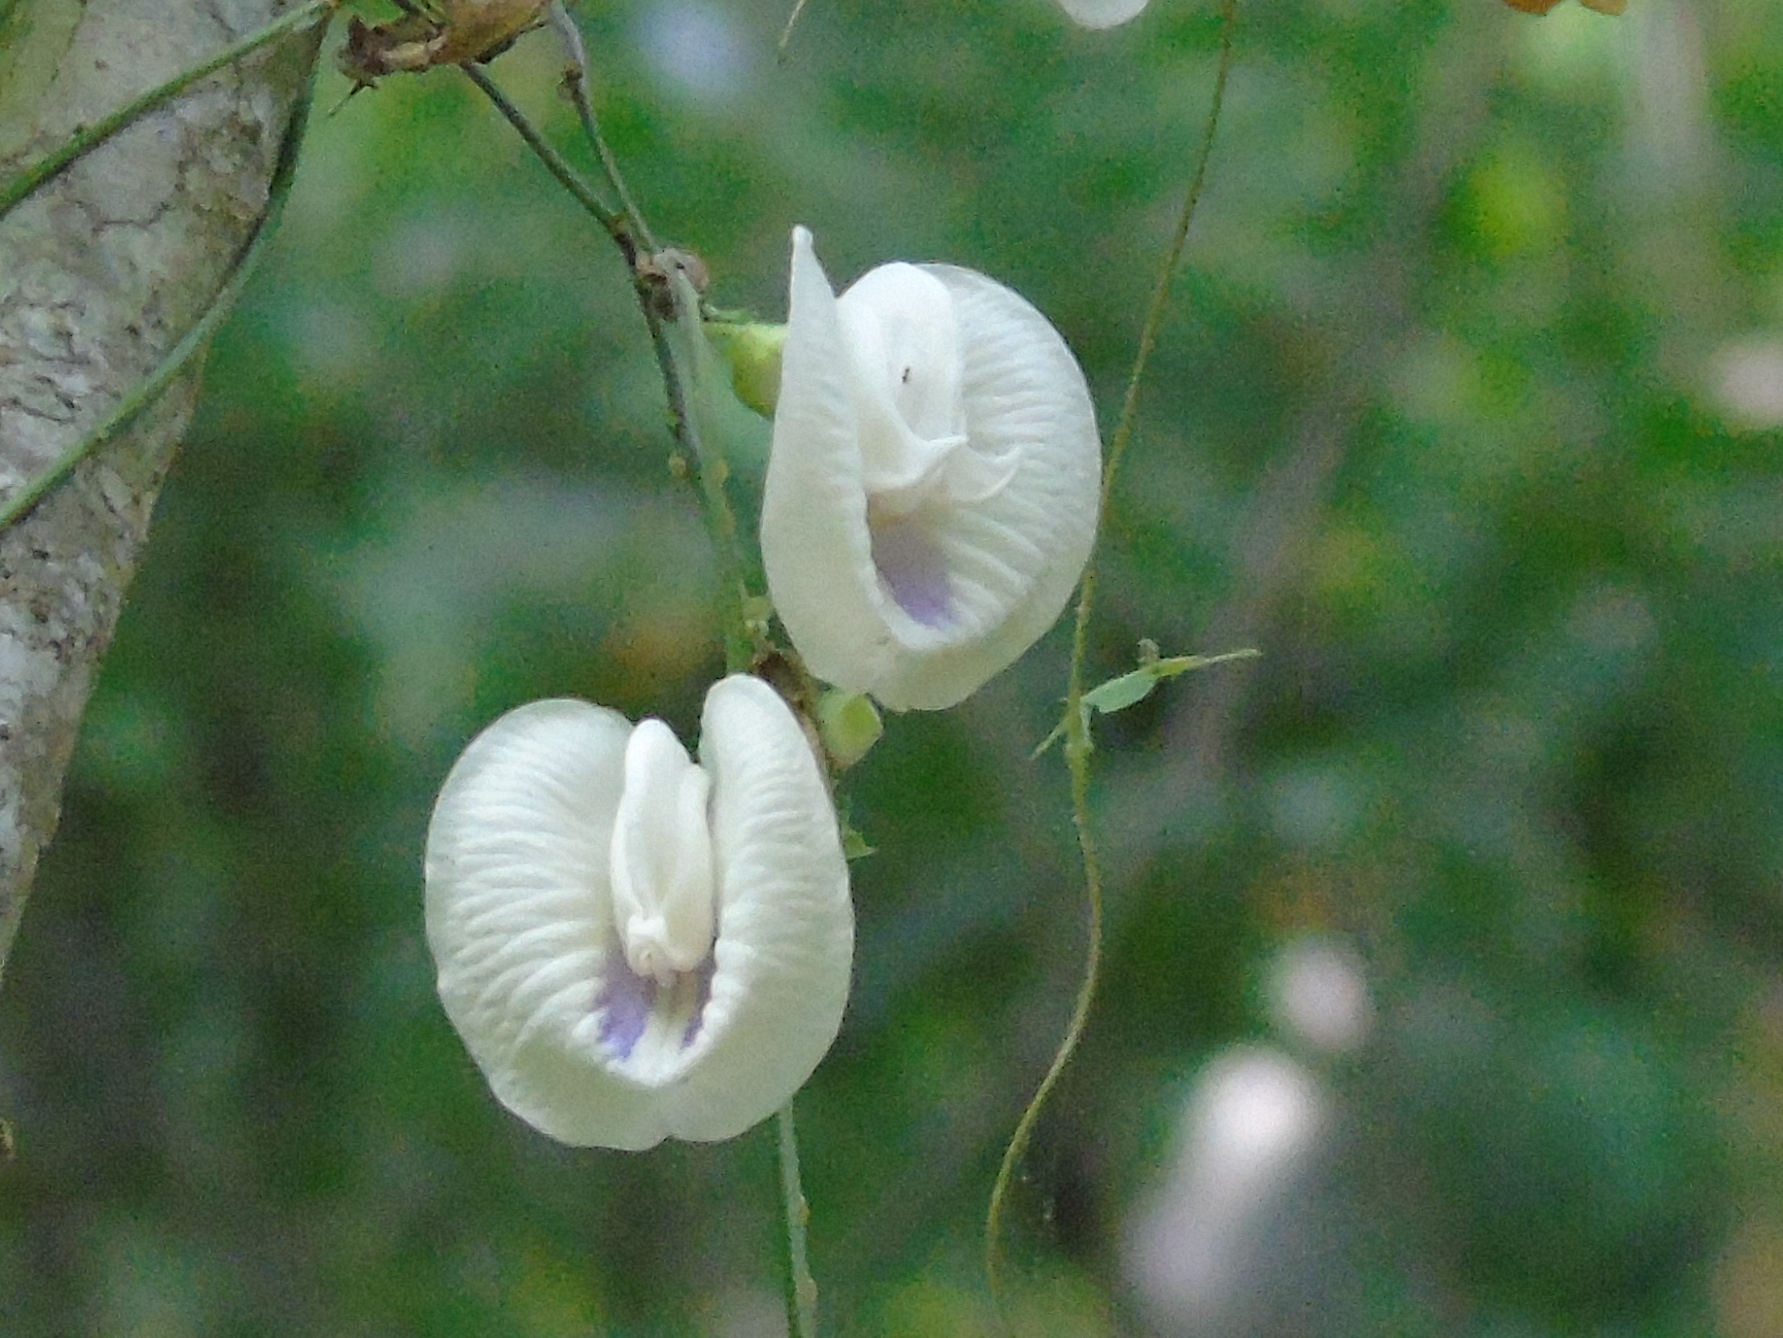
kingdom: Plantae
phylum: Tracheophyta
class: Magnoliopsida
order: Fabales
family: Fabaceae
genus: Centrosema
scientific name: Centrosema sagittatum
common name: Arrowleaf butterfly pea
